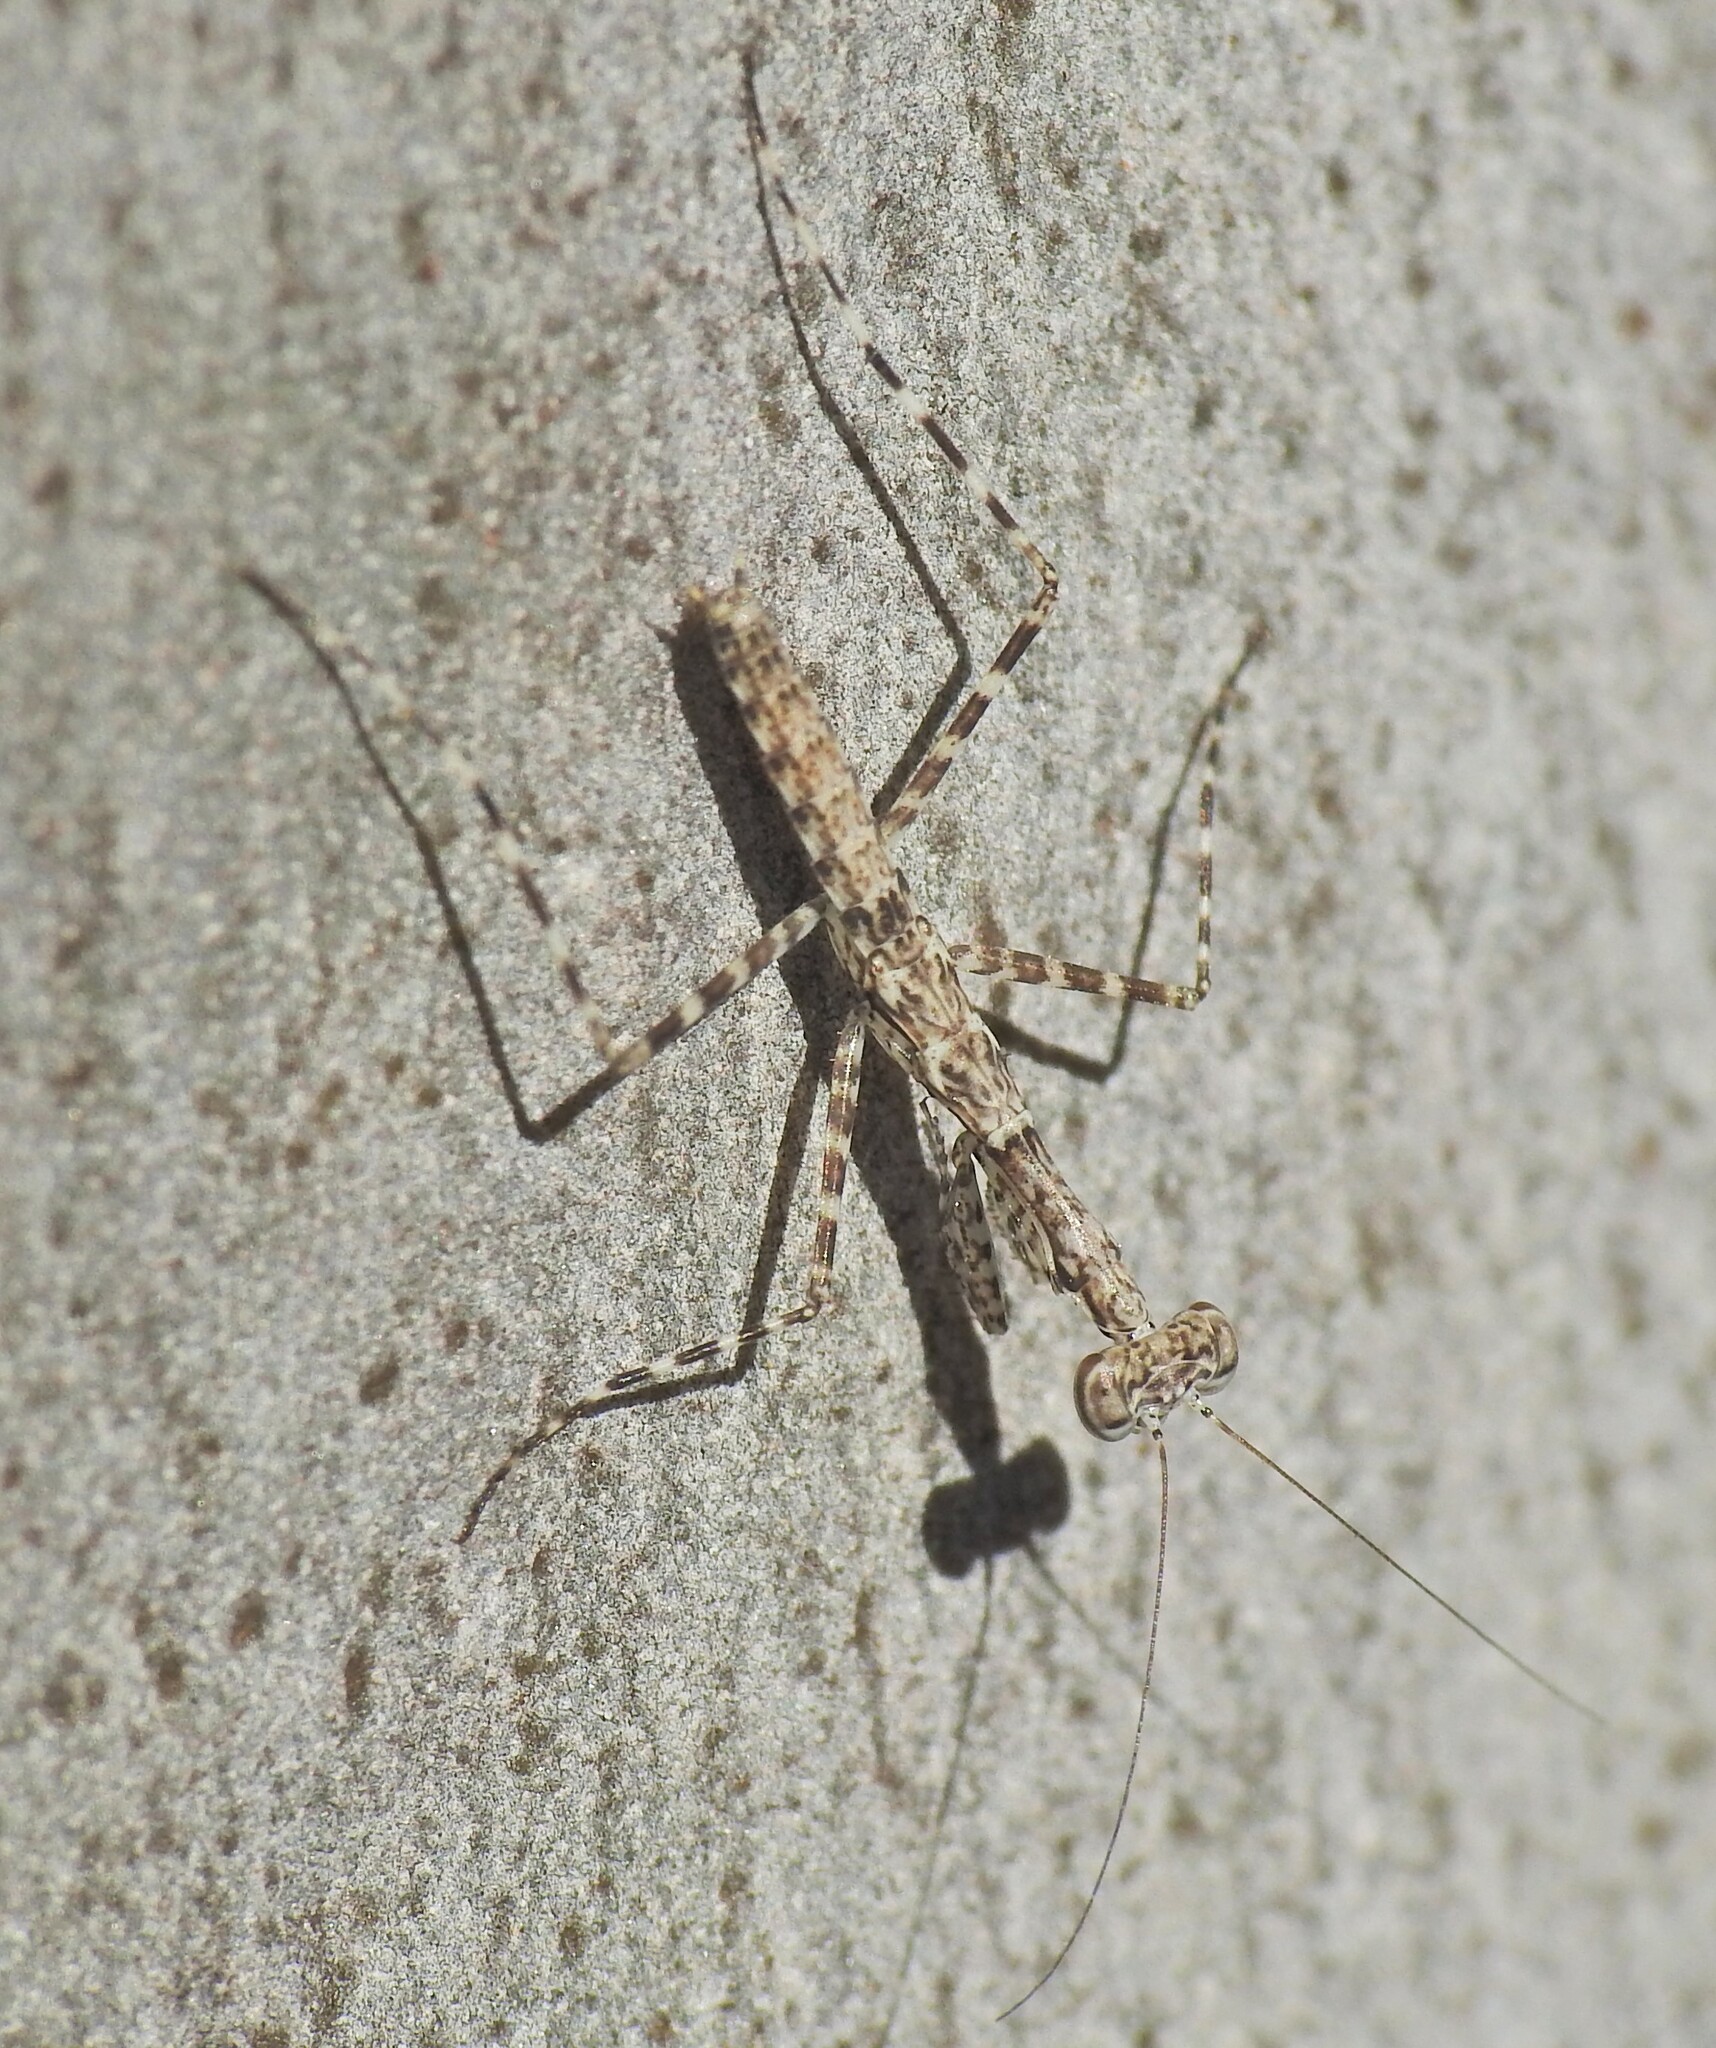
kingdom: Animalia
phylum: Arthropoda
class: Insecta
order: Mantodea
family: Nanomantidae
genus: Ciulfina
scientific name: Ciulfina baldersoni
